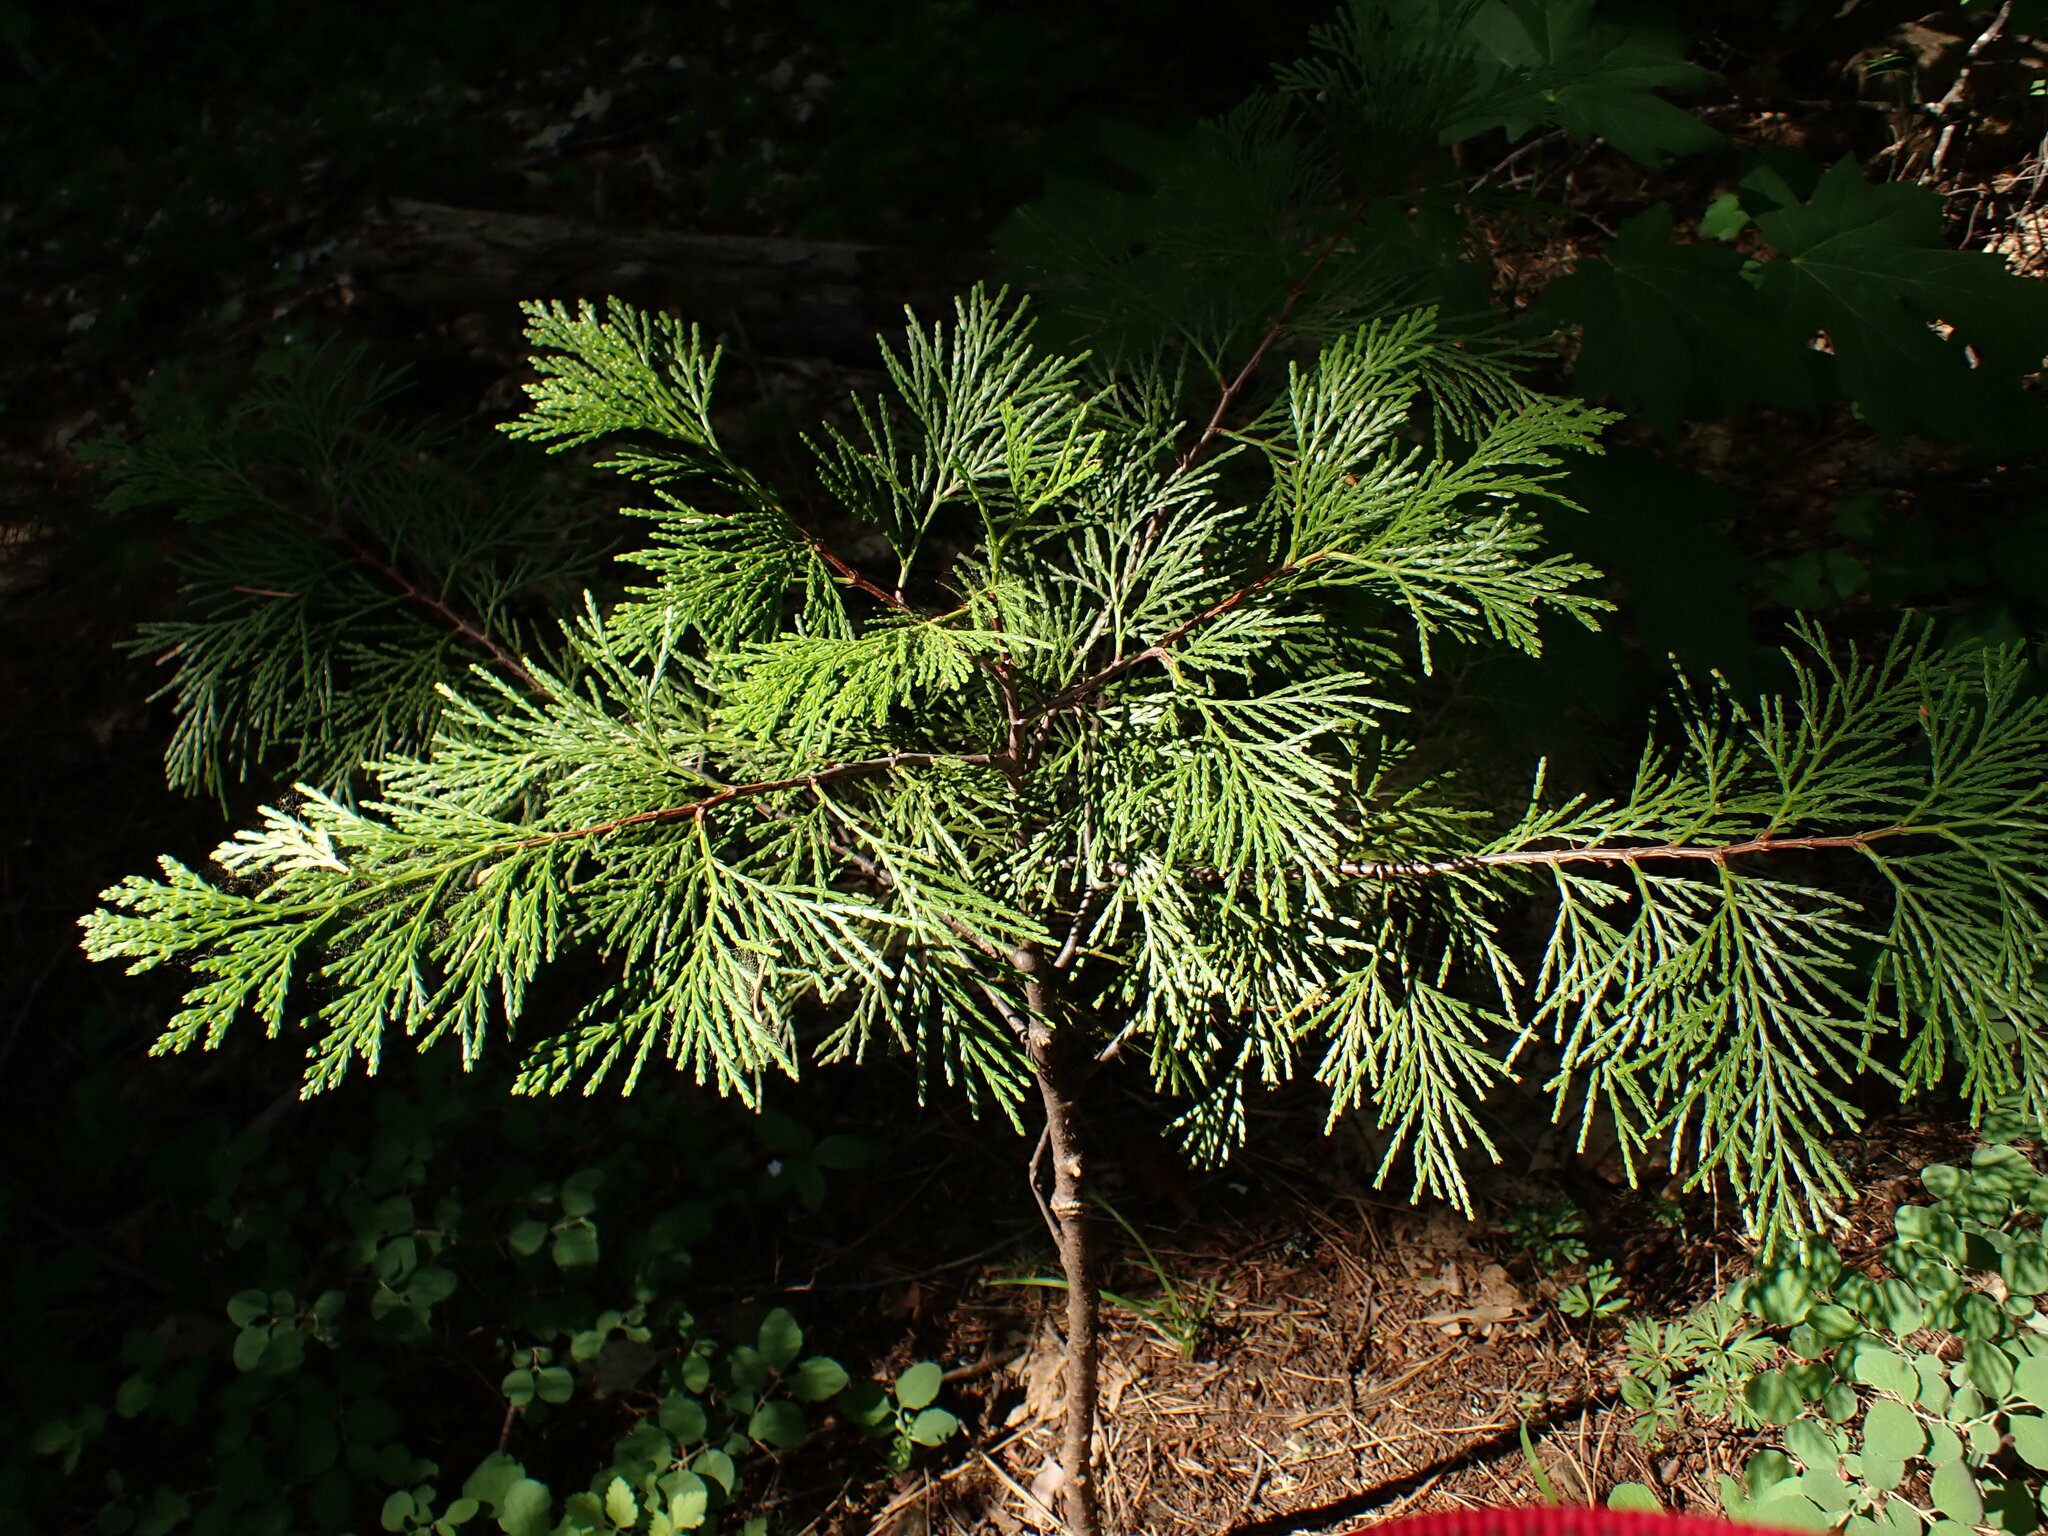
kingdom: Plantae
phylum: Tracheophyta
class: Pinopsida
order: Pinales
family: Cupressaceae
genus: Calocedrus
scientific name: Calocedrus decurrens
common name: Californian incense-cedar
